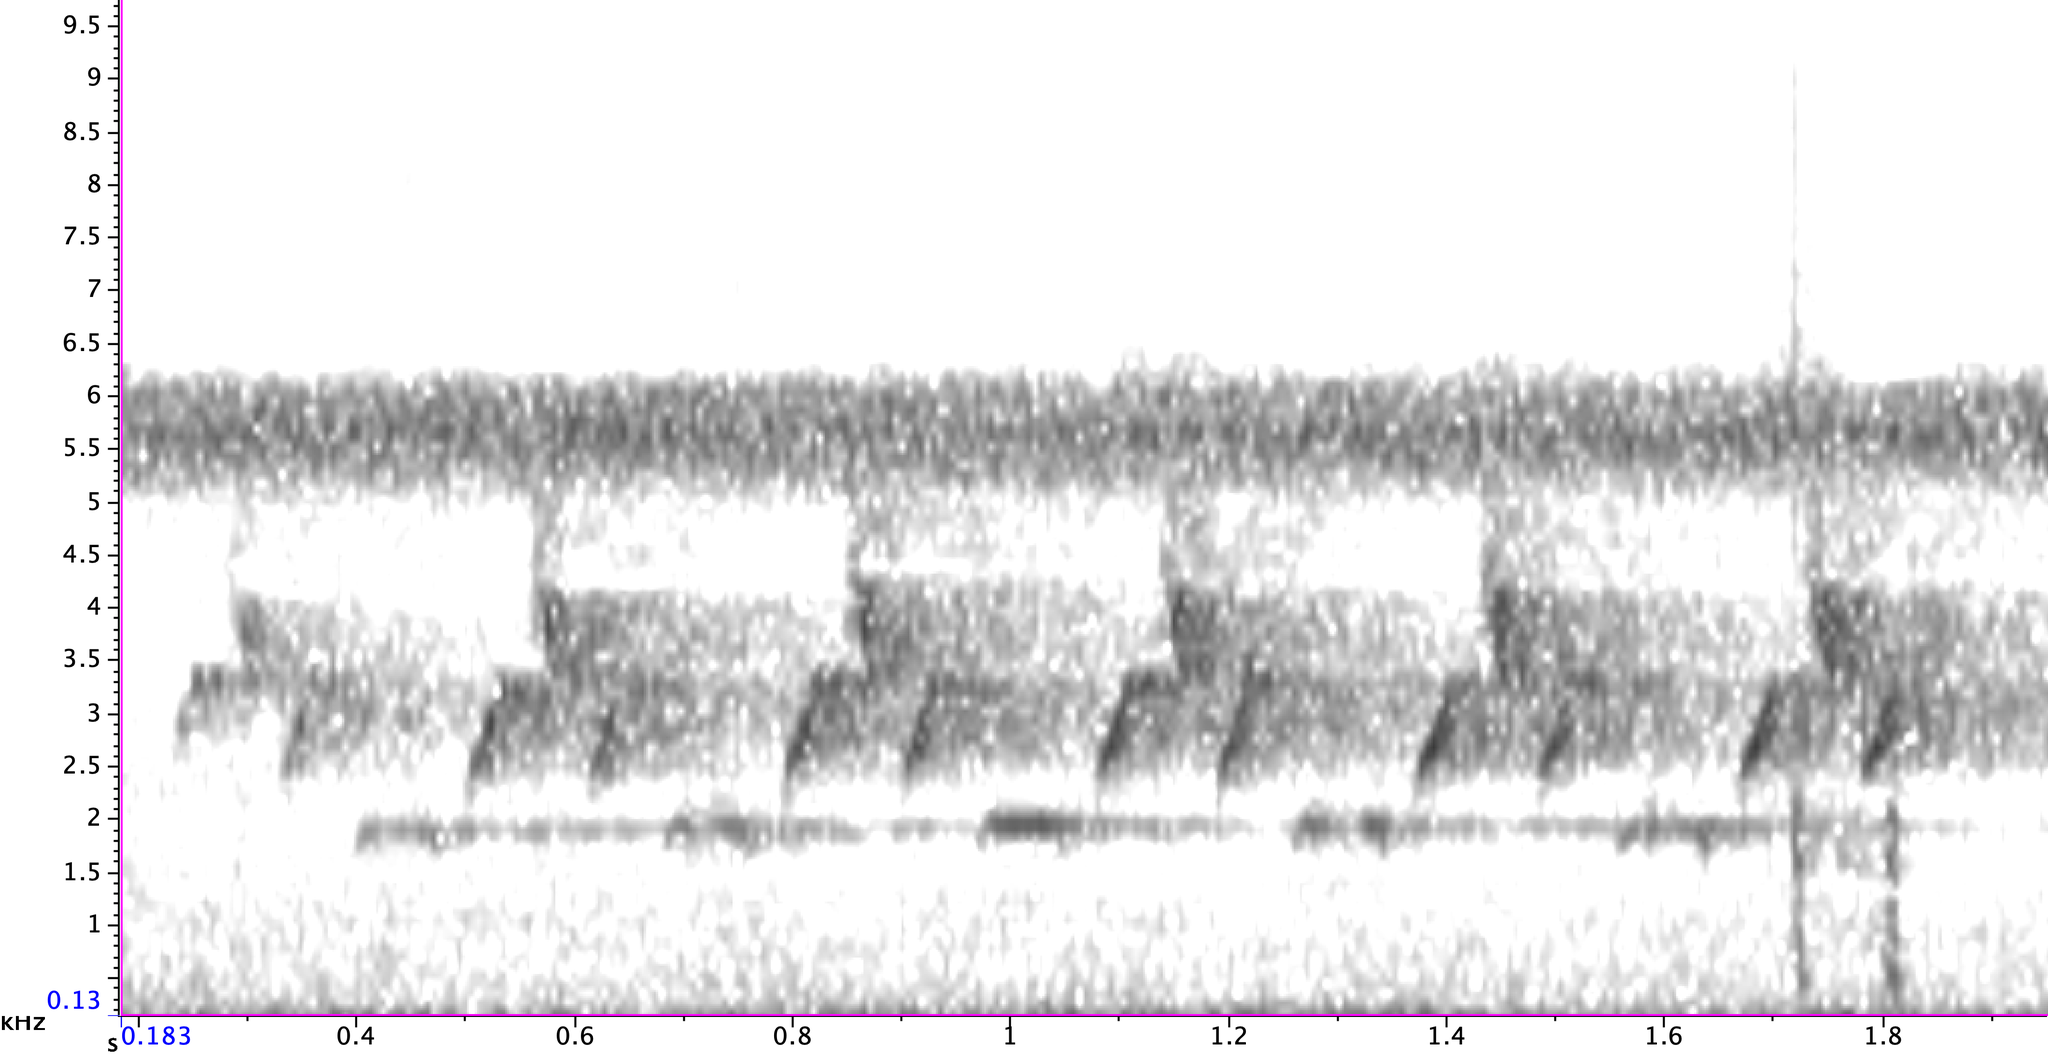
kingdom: Animalia
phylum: Chordata
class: Aves
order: Passeriformes
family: Troglodytidae
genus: Thryothorus
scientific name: Thryothorus ludovicianus
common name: Carolina wren
